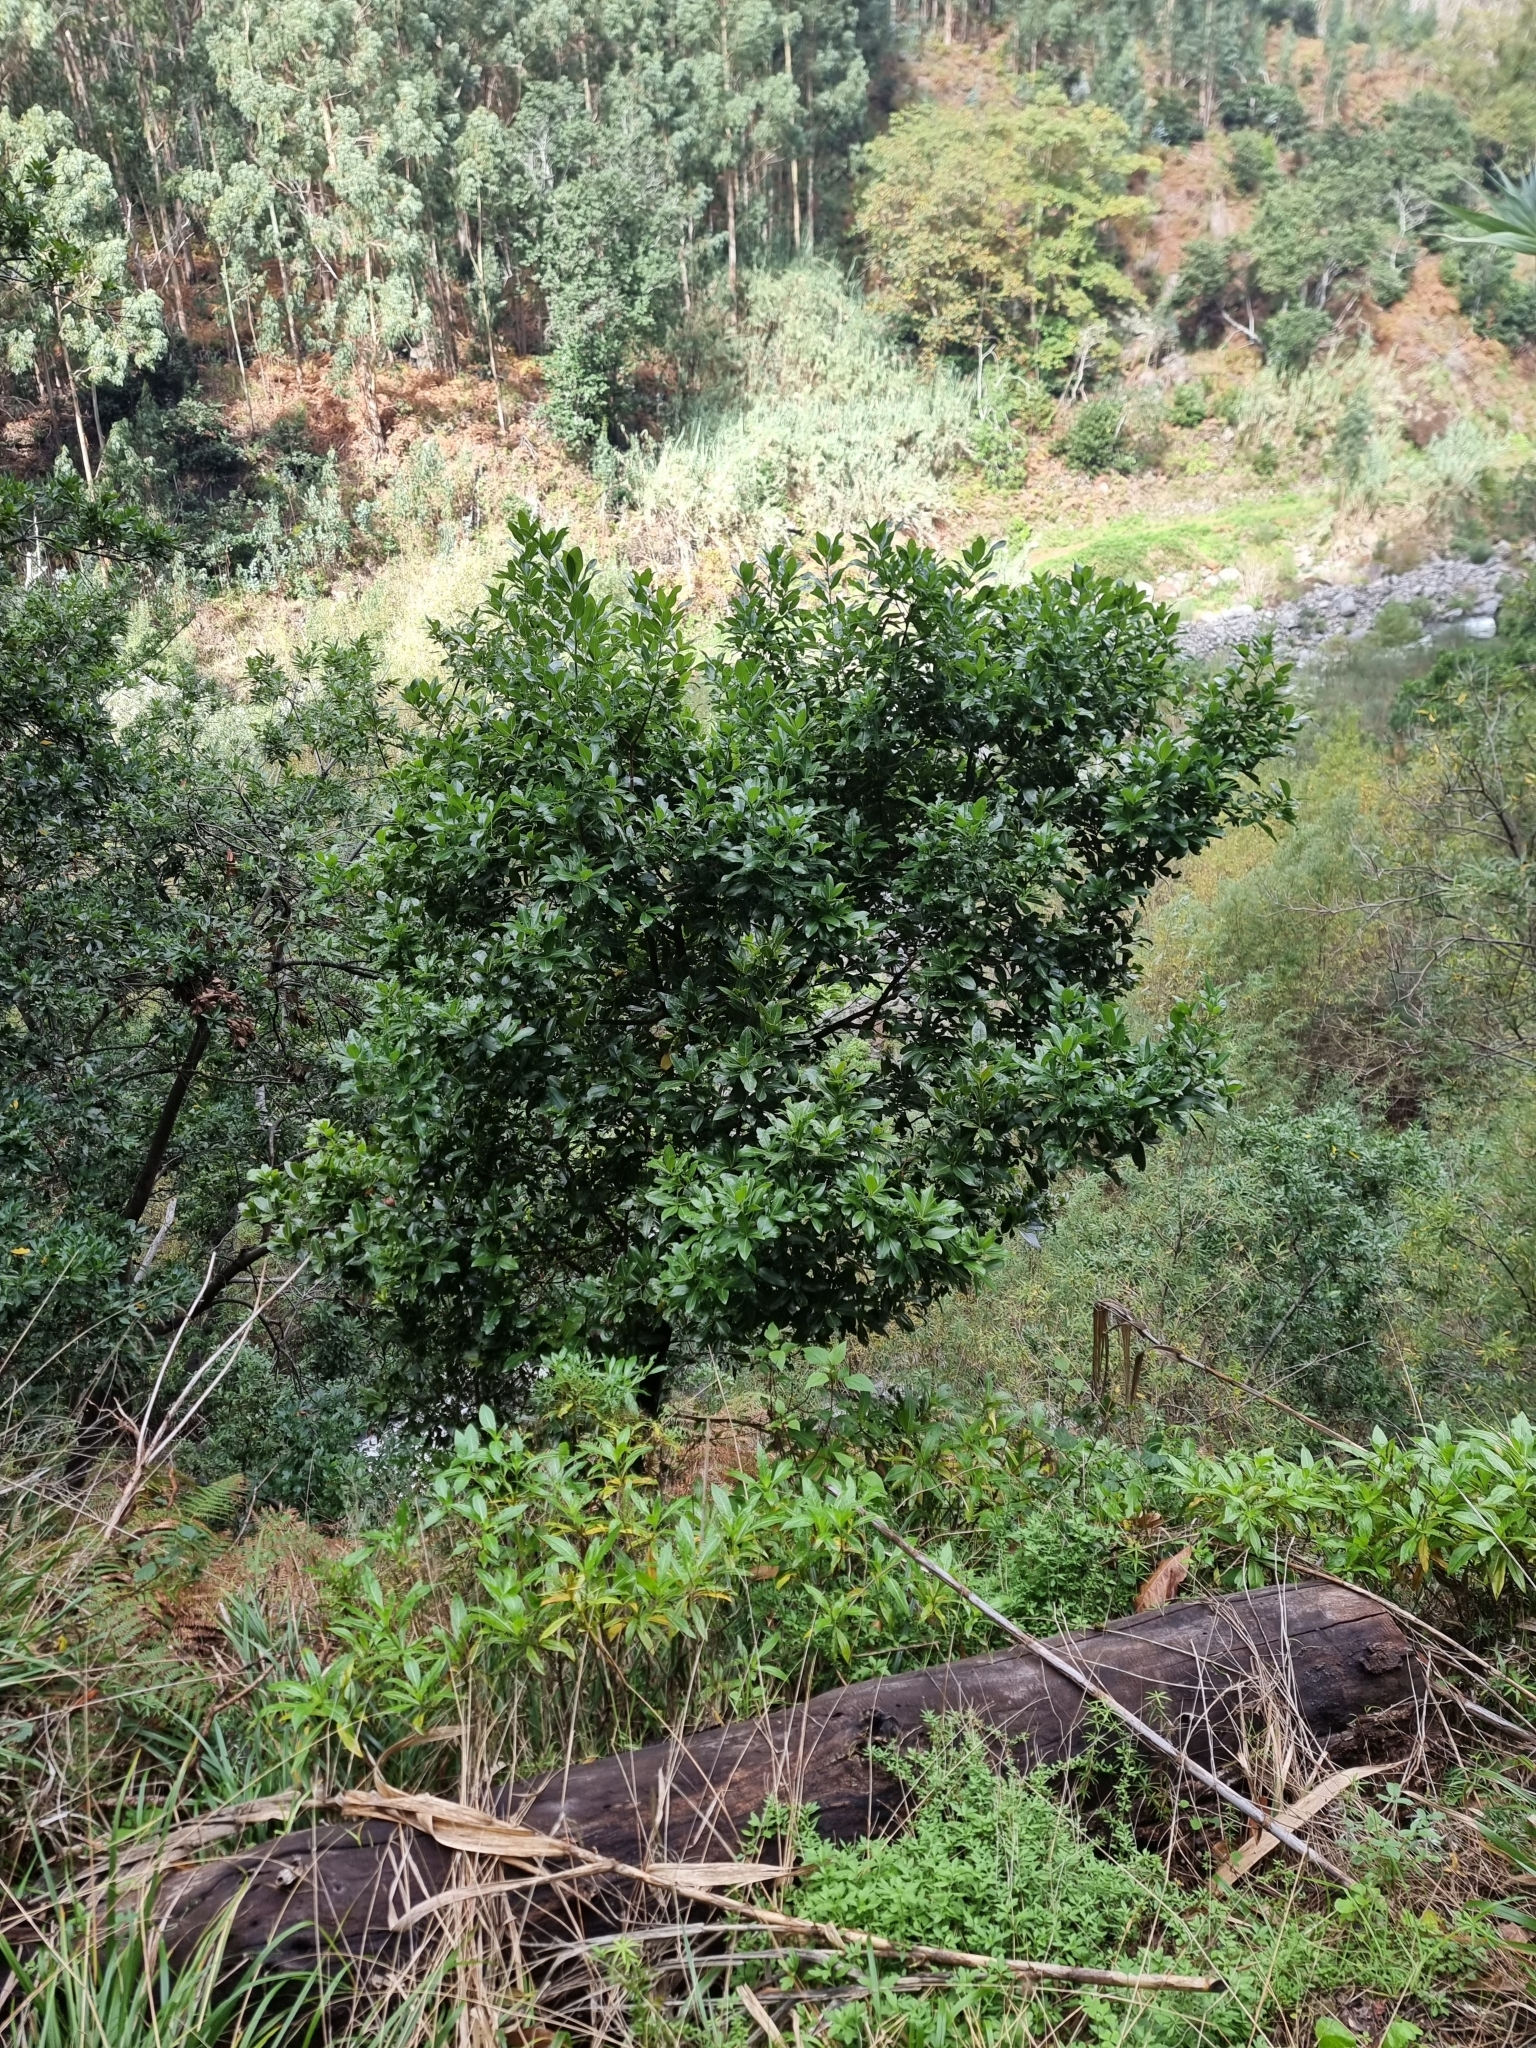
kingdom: Plantae
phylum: Tracheophyta
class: Magnoliopsida
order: Laurales
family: Lauraceae
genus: Apollonias
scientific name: Apollonias barbujana
